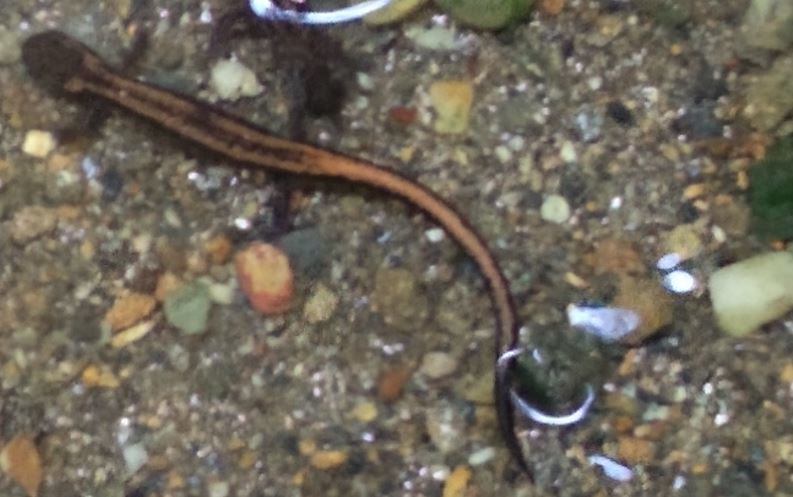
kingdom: Animalia
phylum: Chordata
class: Amphibia
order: Caudata
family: Salamandridae
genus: Chioglossa
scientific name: Chioglossa lusitanica
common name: Gold-striped salamander
